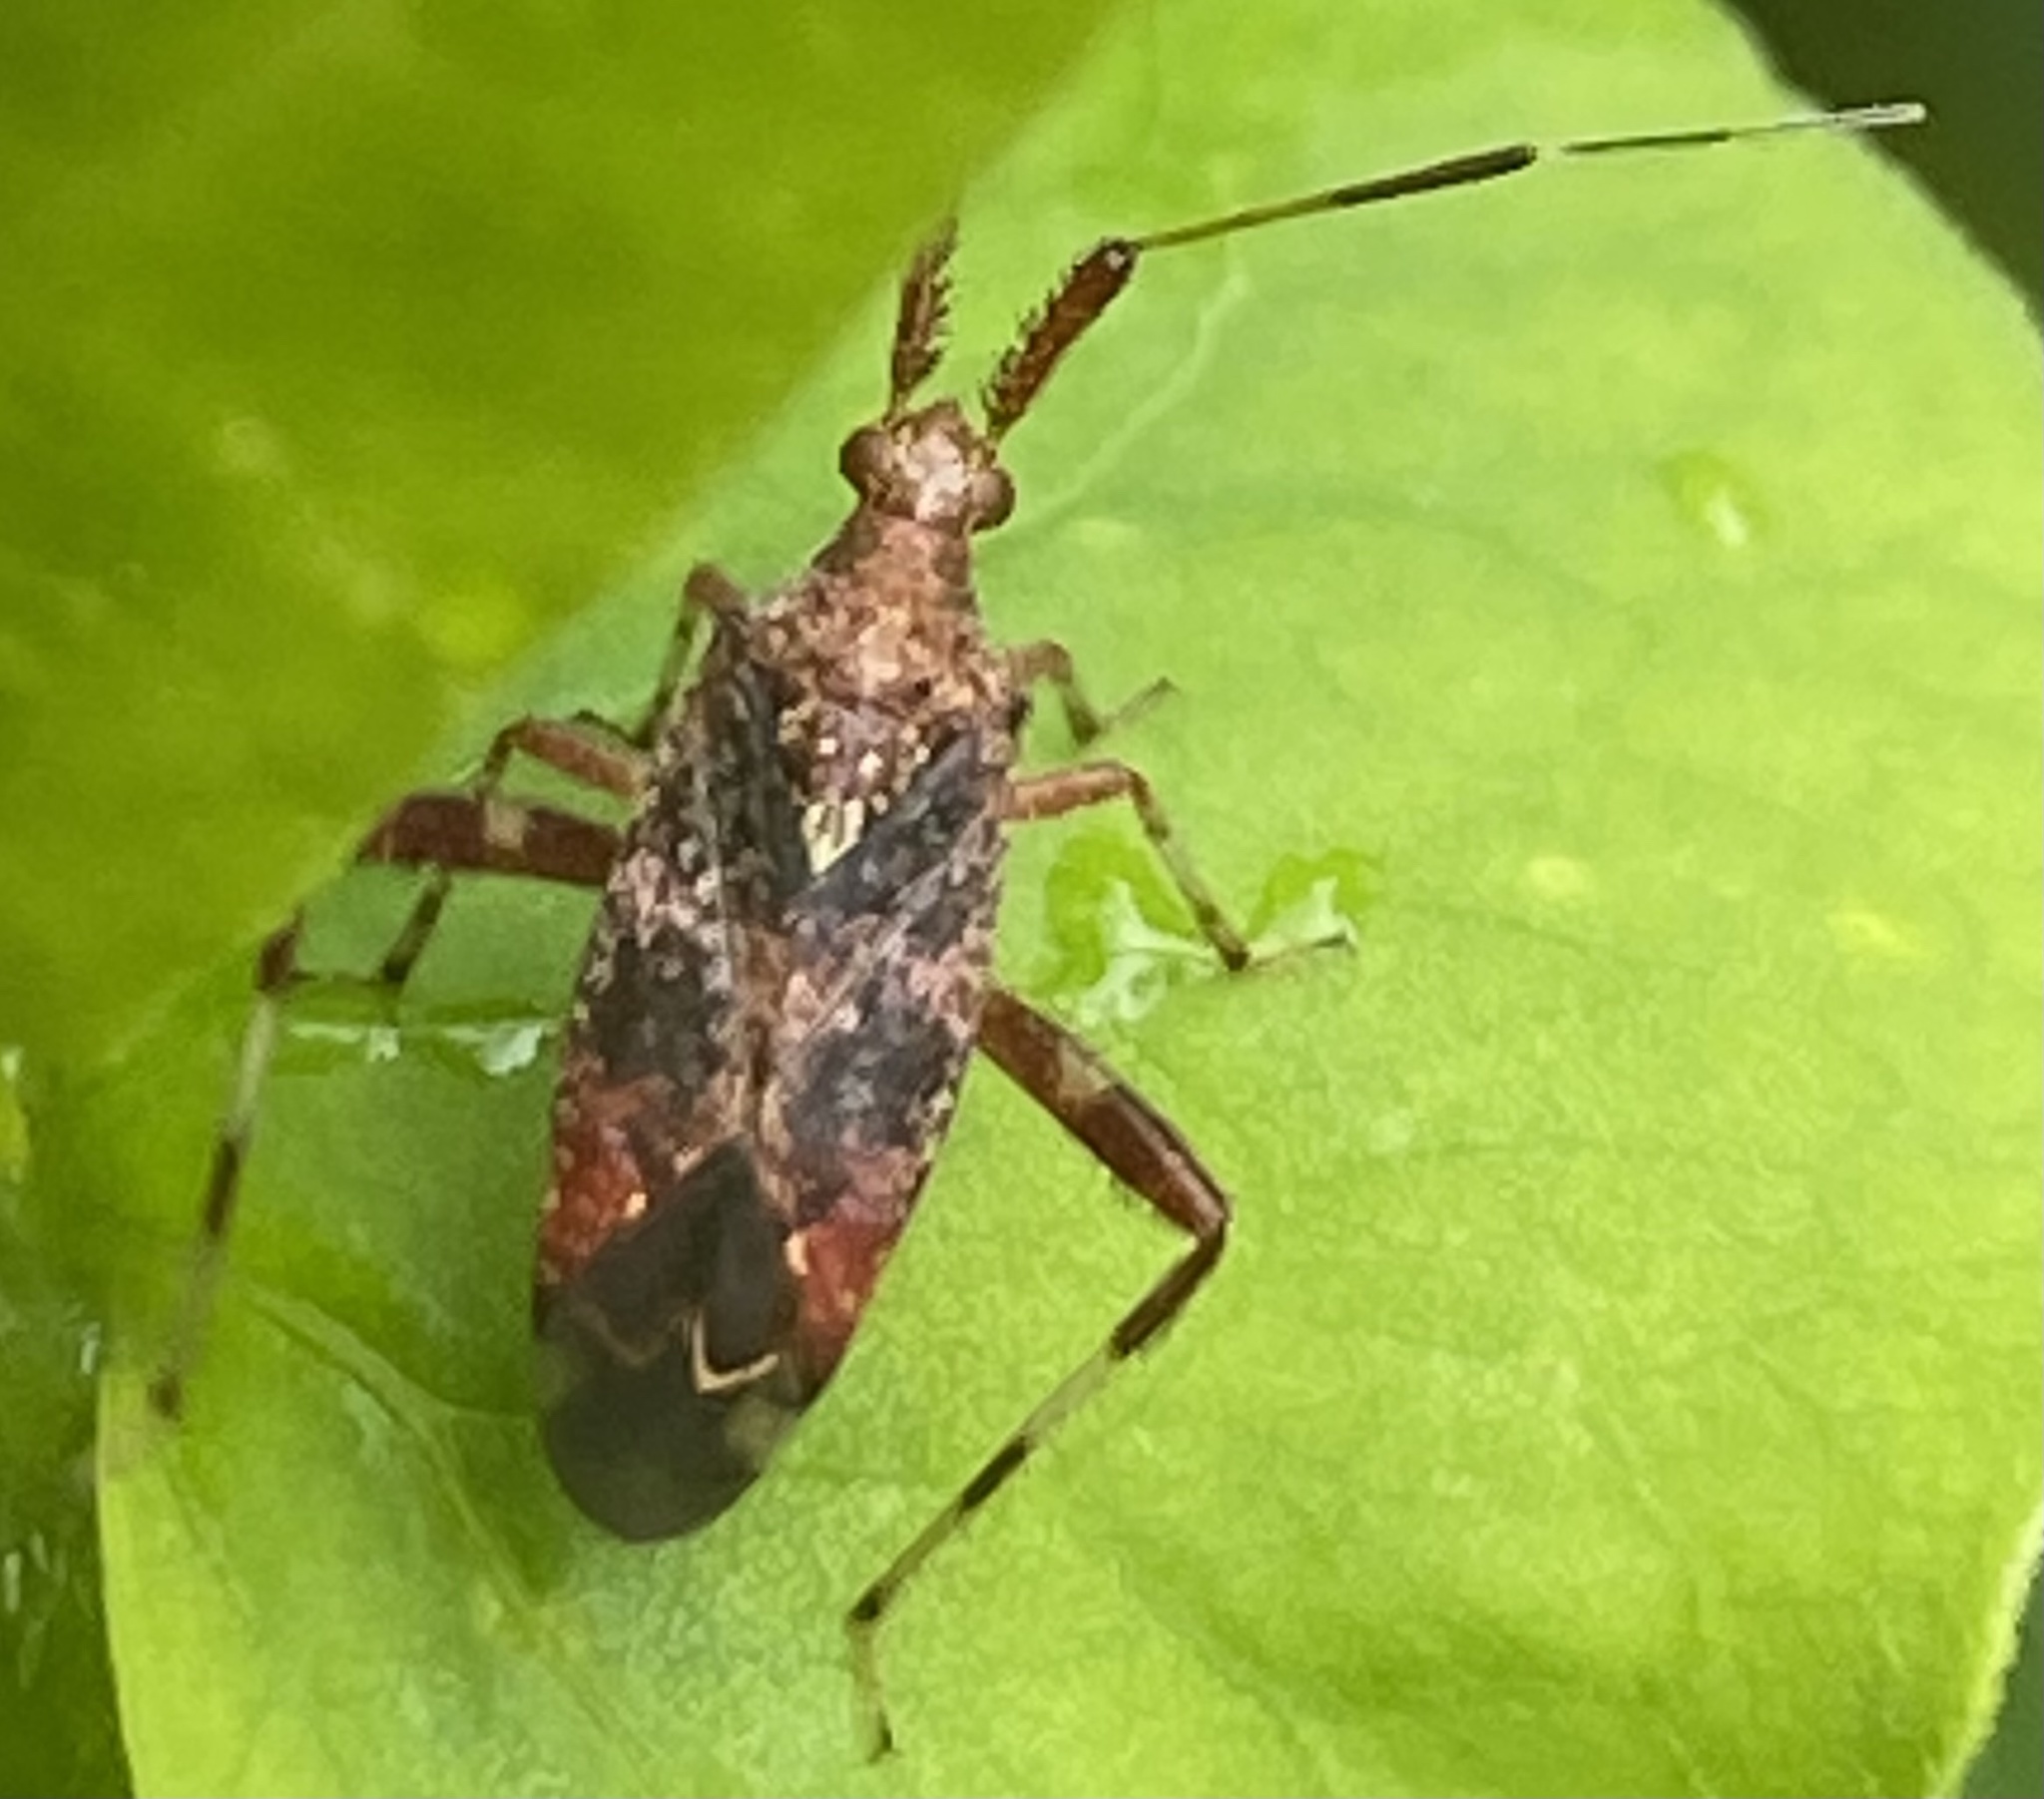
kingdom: Animalia
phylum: Arthropoda
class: Insecta
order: Hemiptera
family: Miridae
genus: Neurocolpus
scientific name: Neurocolpus nubilus
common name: Clouded plant bug
